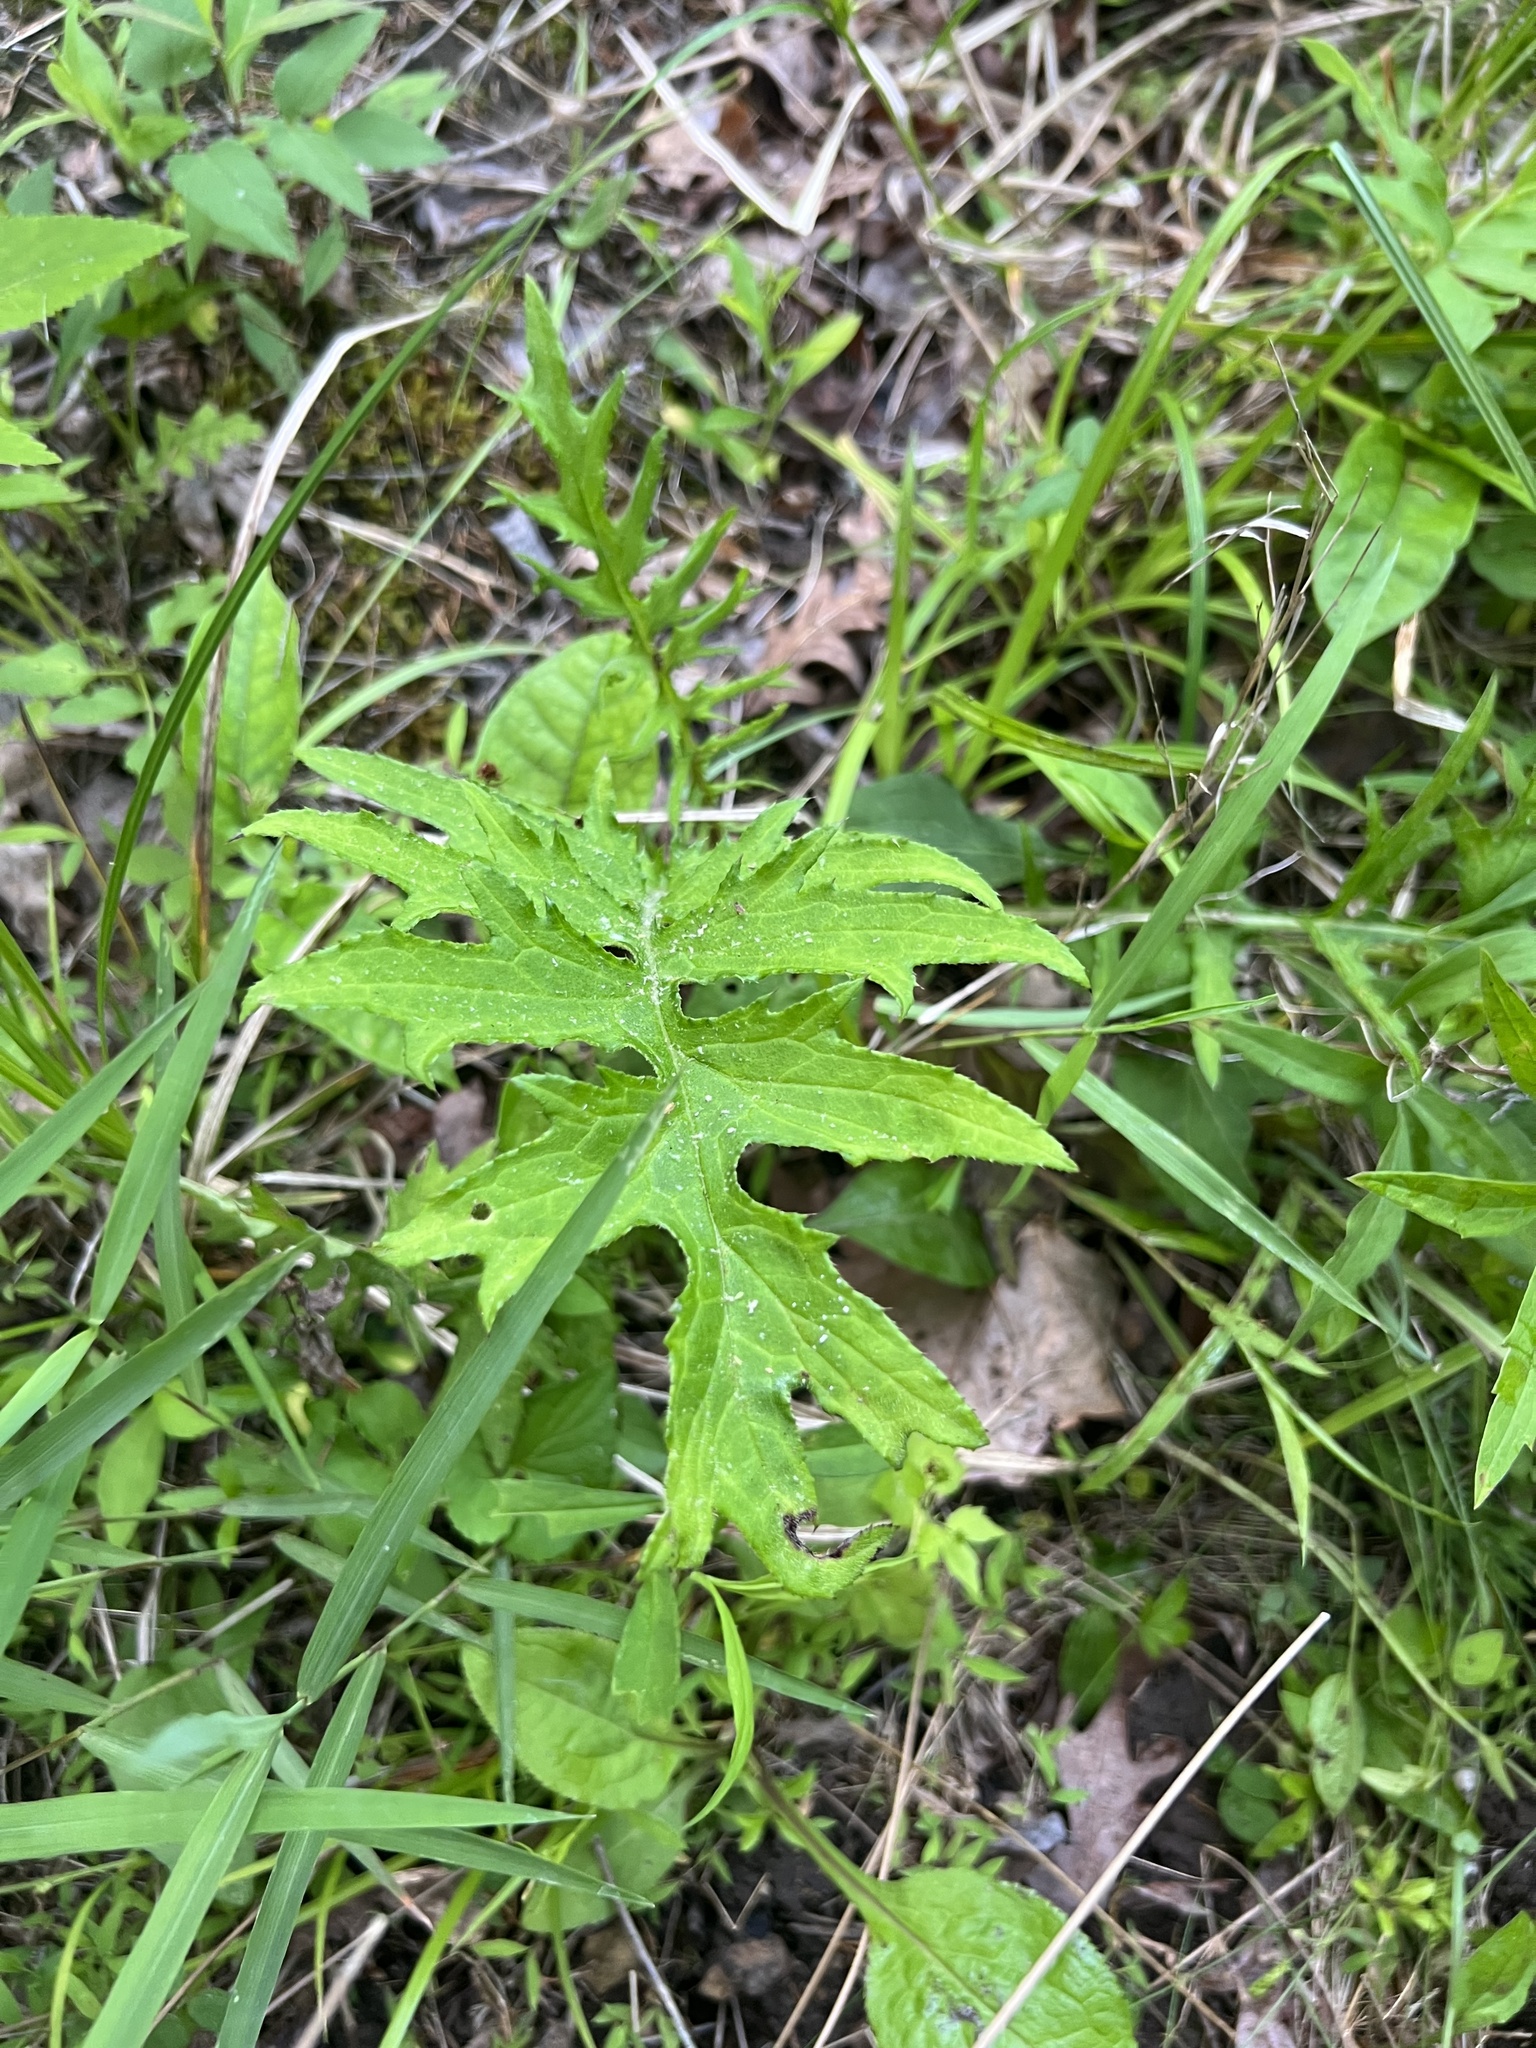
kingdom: Plantae
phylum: Tracheophyta
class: Magnoliopsida
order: Asterales
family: Asteraceae
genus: Cirsium
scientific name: Cirsium muticum
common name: Dunce-nettle
